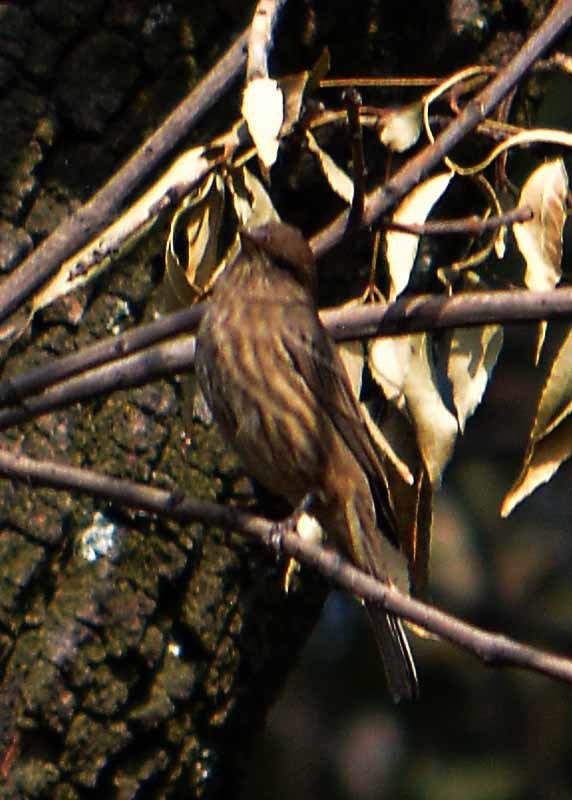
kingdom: Animalia
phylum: Chordata
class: Aves
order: Passeriformes
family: Fringillidae
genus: Haemorhous
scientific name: Haemorhous mexicanus
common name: House finch
